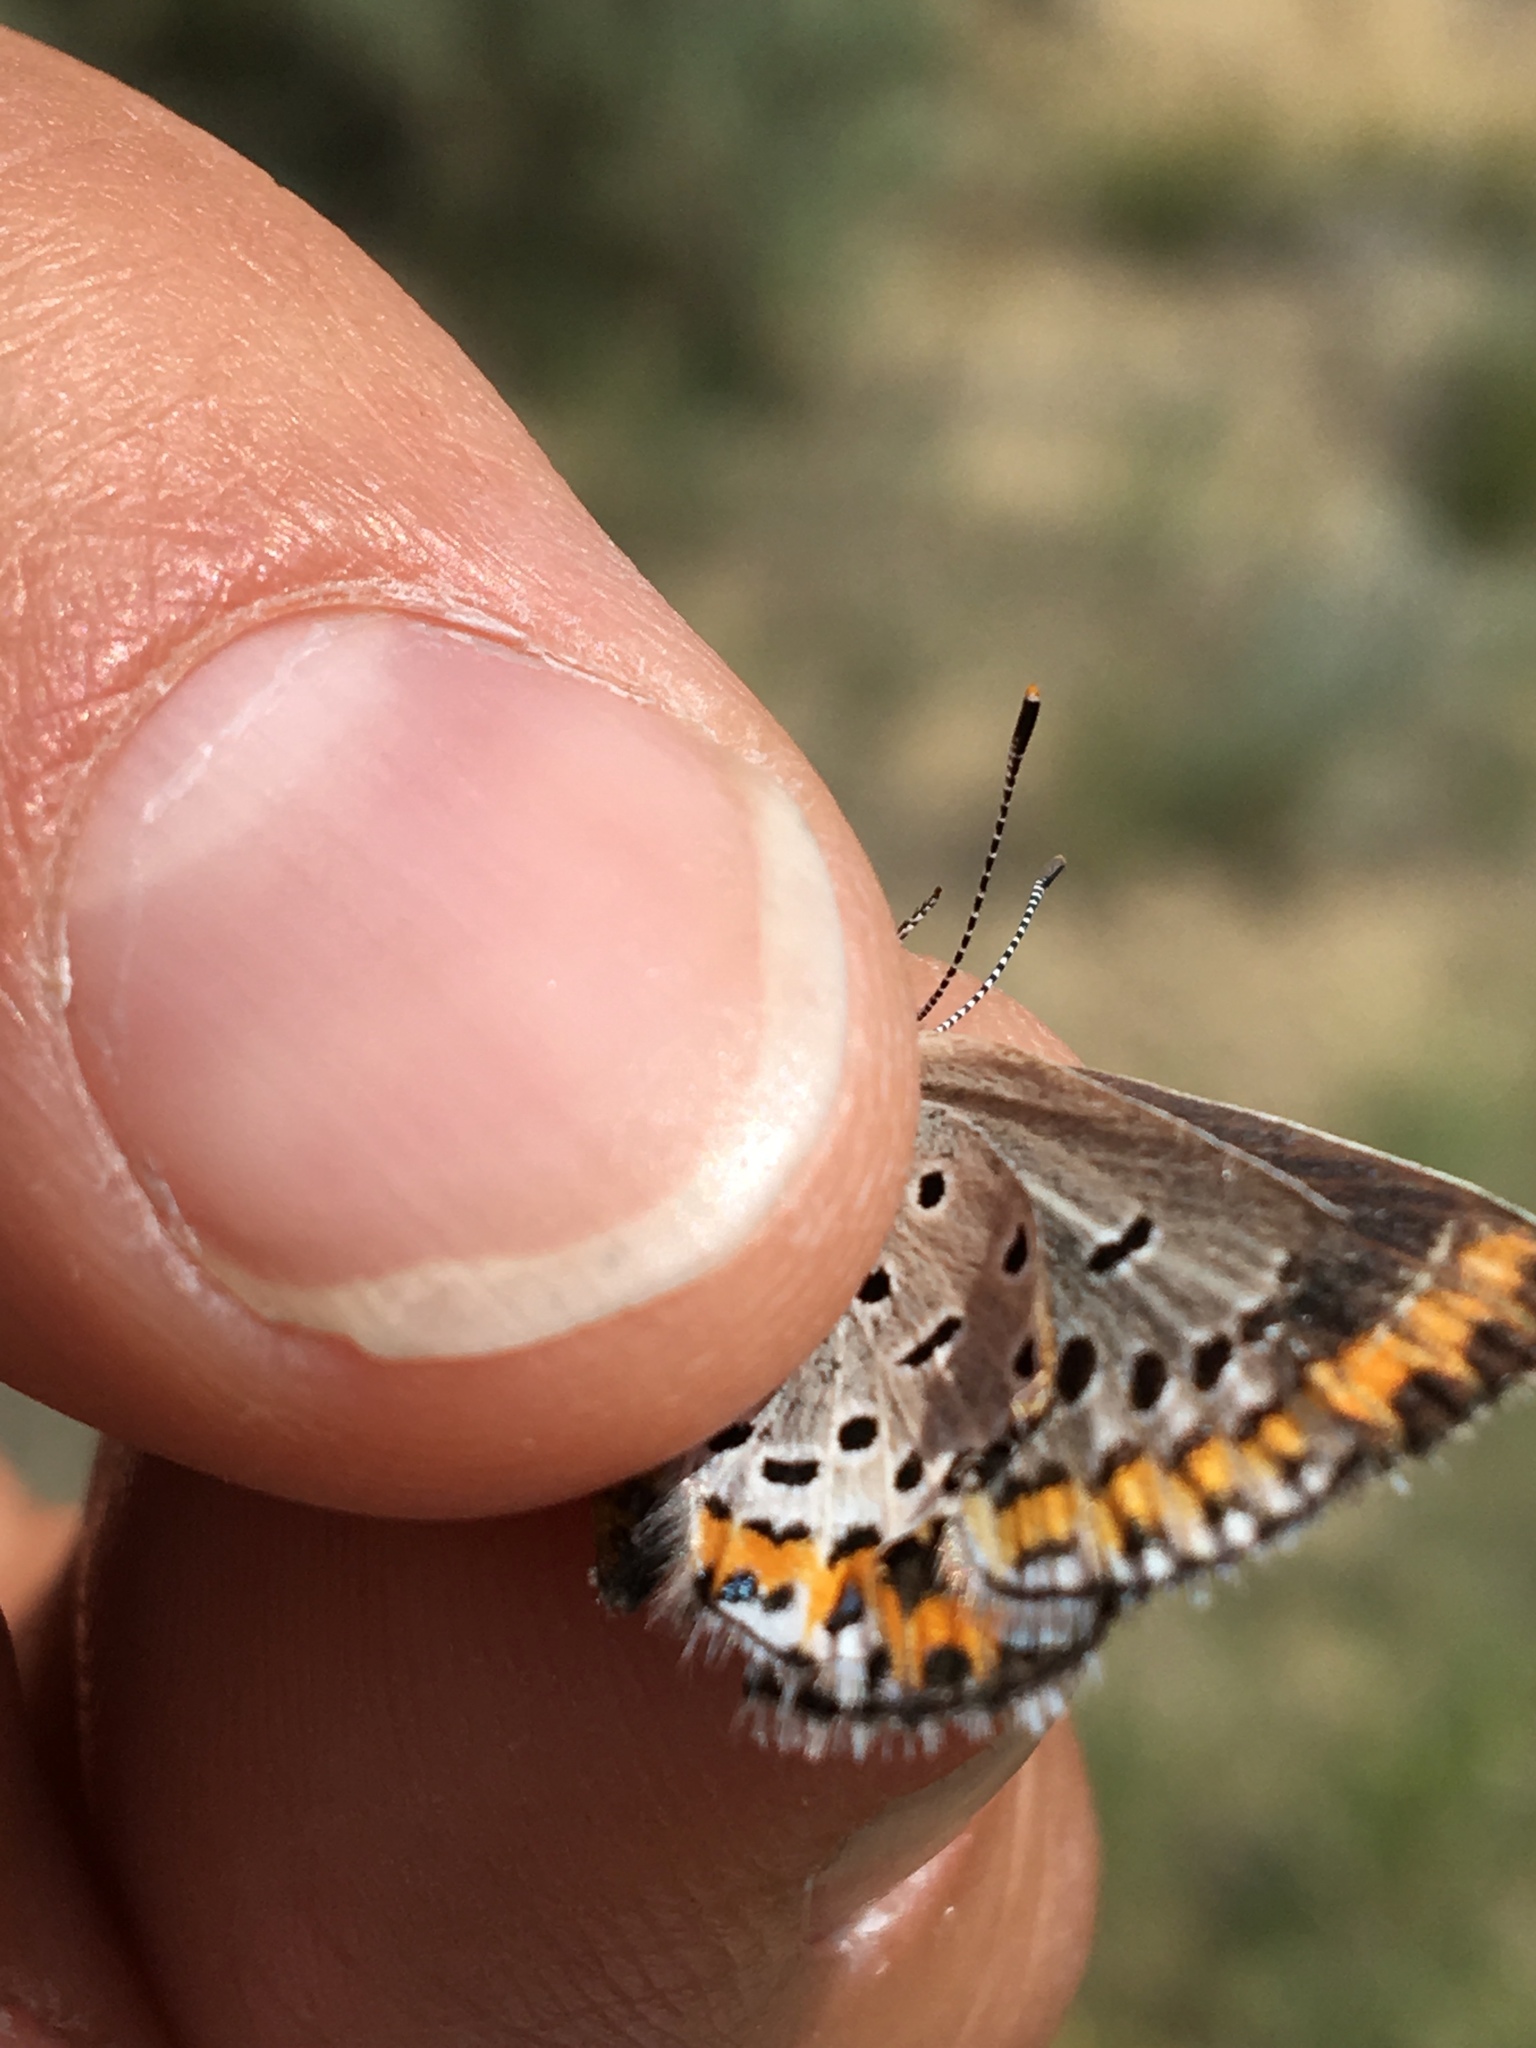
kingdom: Animalia
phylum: Arthropoda
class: Insecta
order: Lepidoptera
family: Lycaenidae
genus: Lycaeides
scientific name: Lycaeides melissa
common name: Melissa blue
